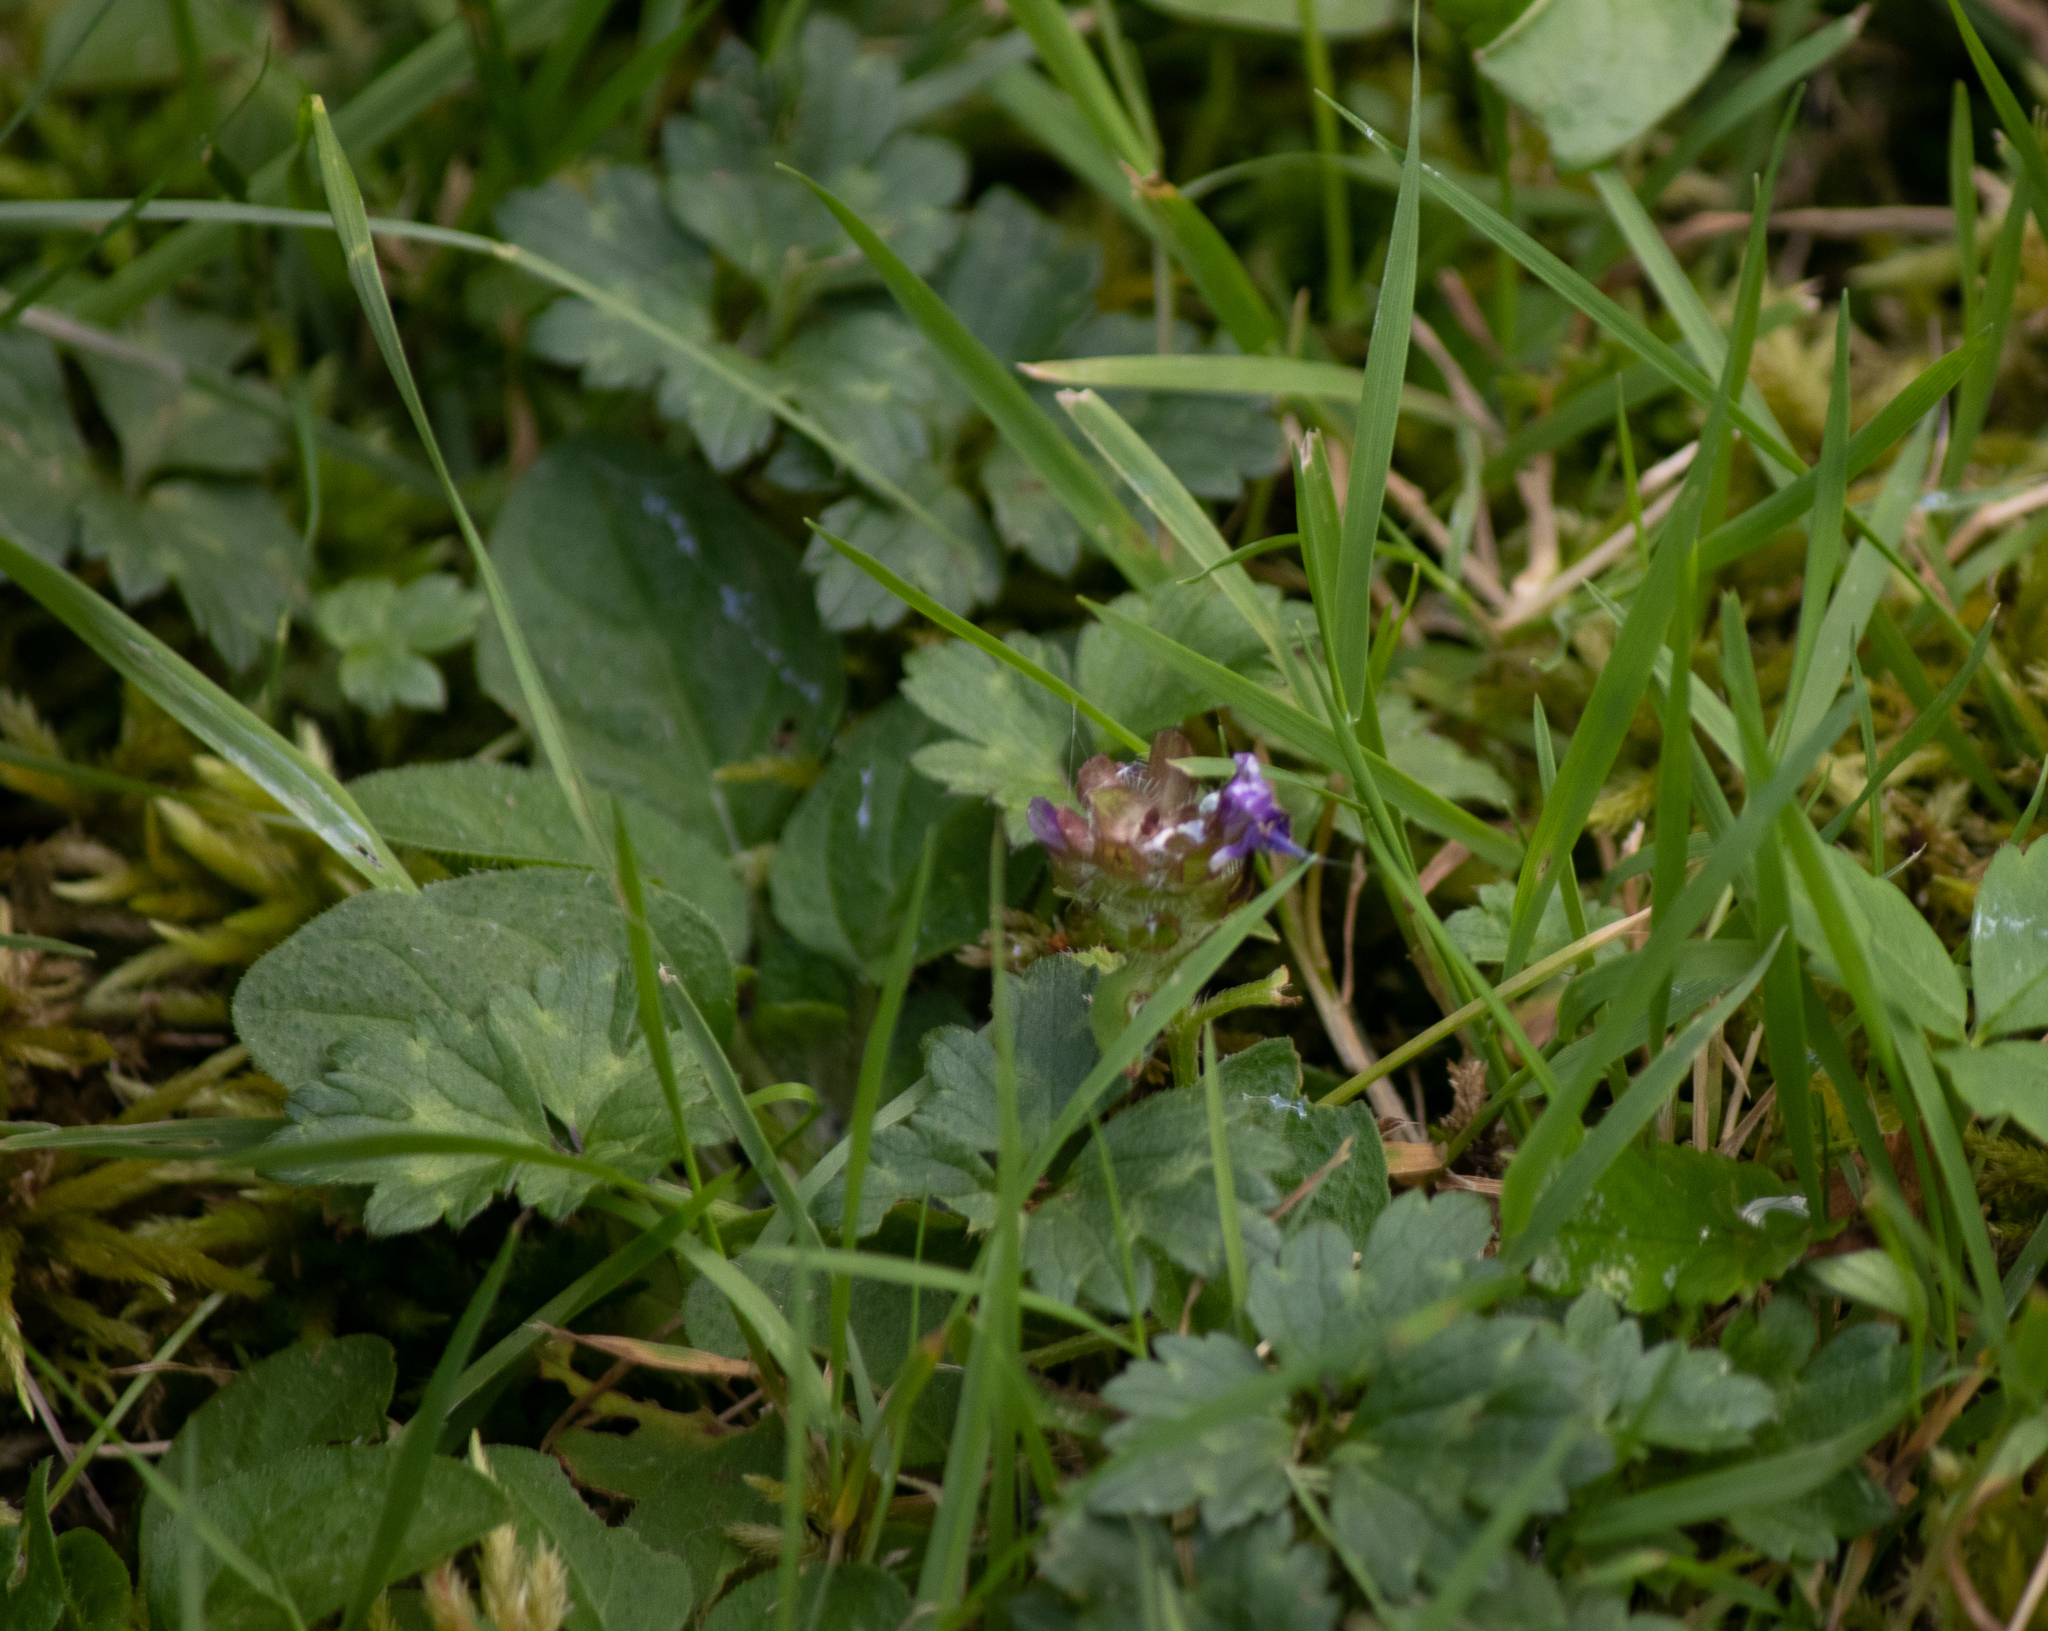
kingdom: Plantae
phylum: Tracheophyta
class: Magnoliopsida
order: Lamiales
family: Lamiaceae
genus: Prunella
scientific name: Prunella vulgaris
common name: Heal-all
